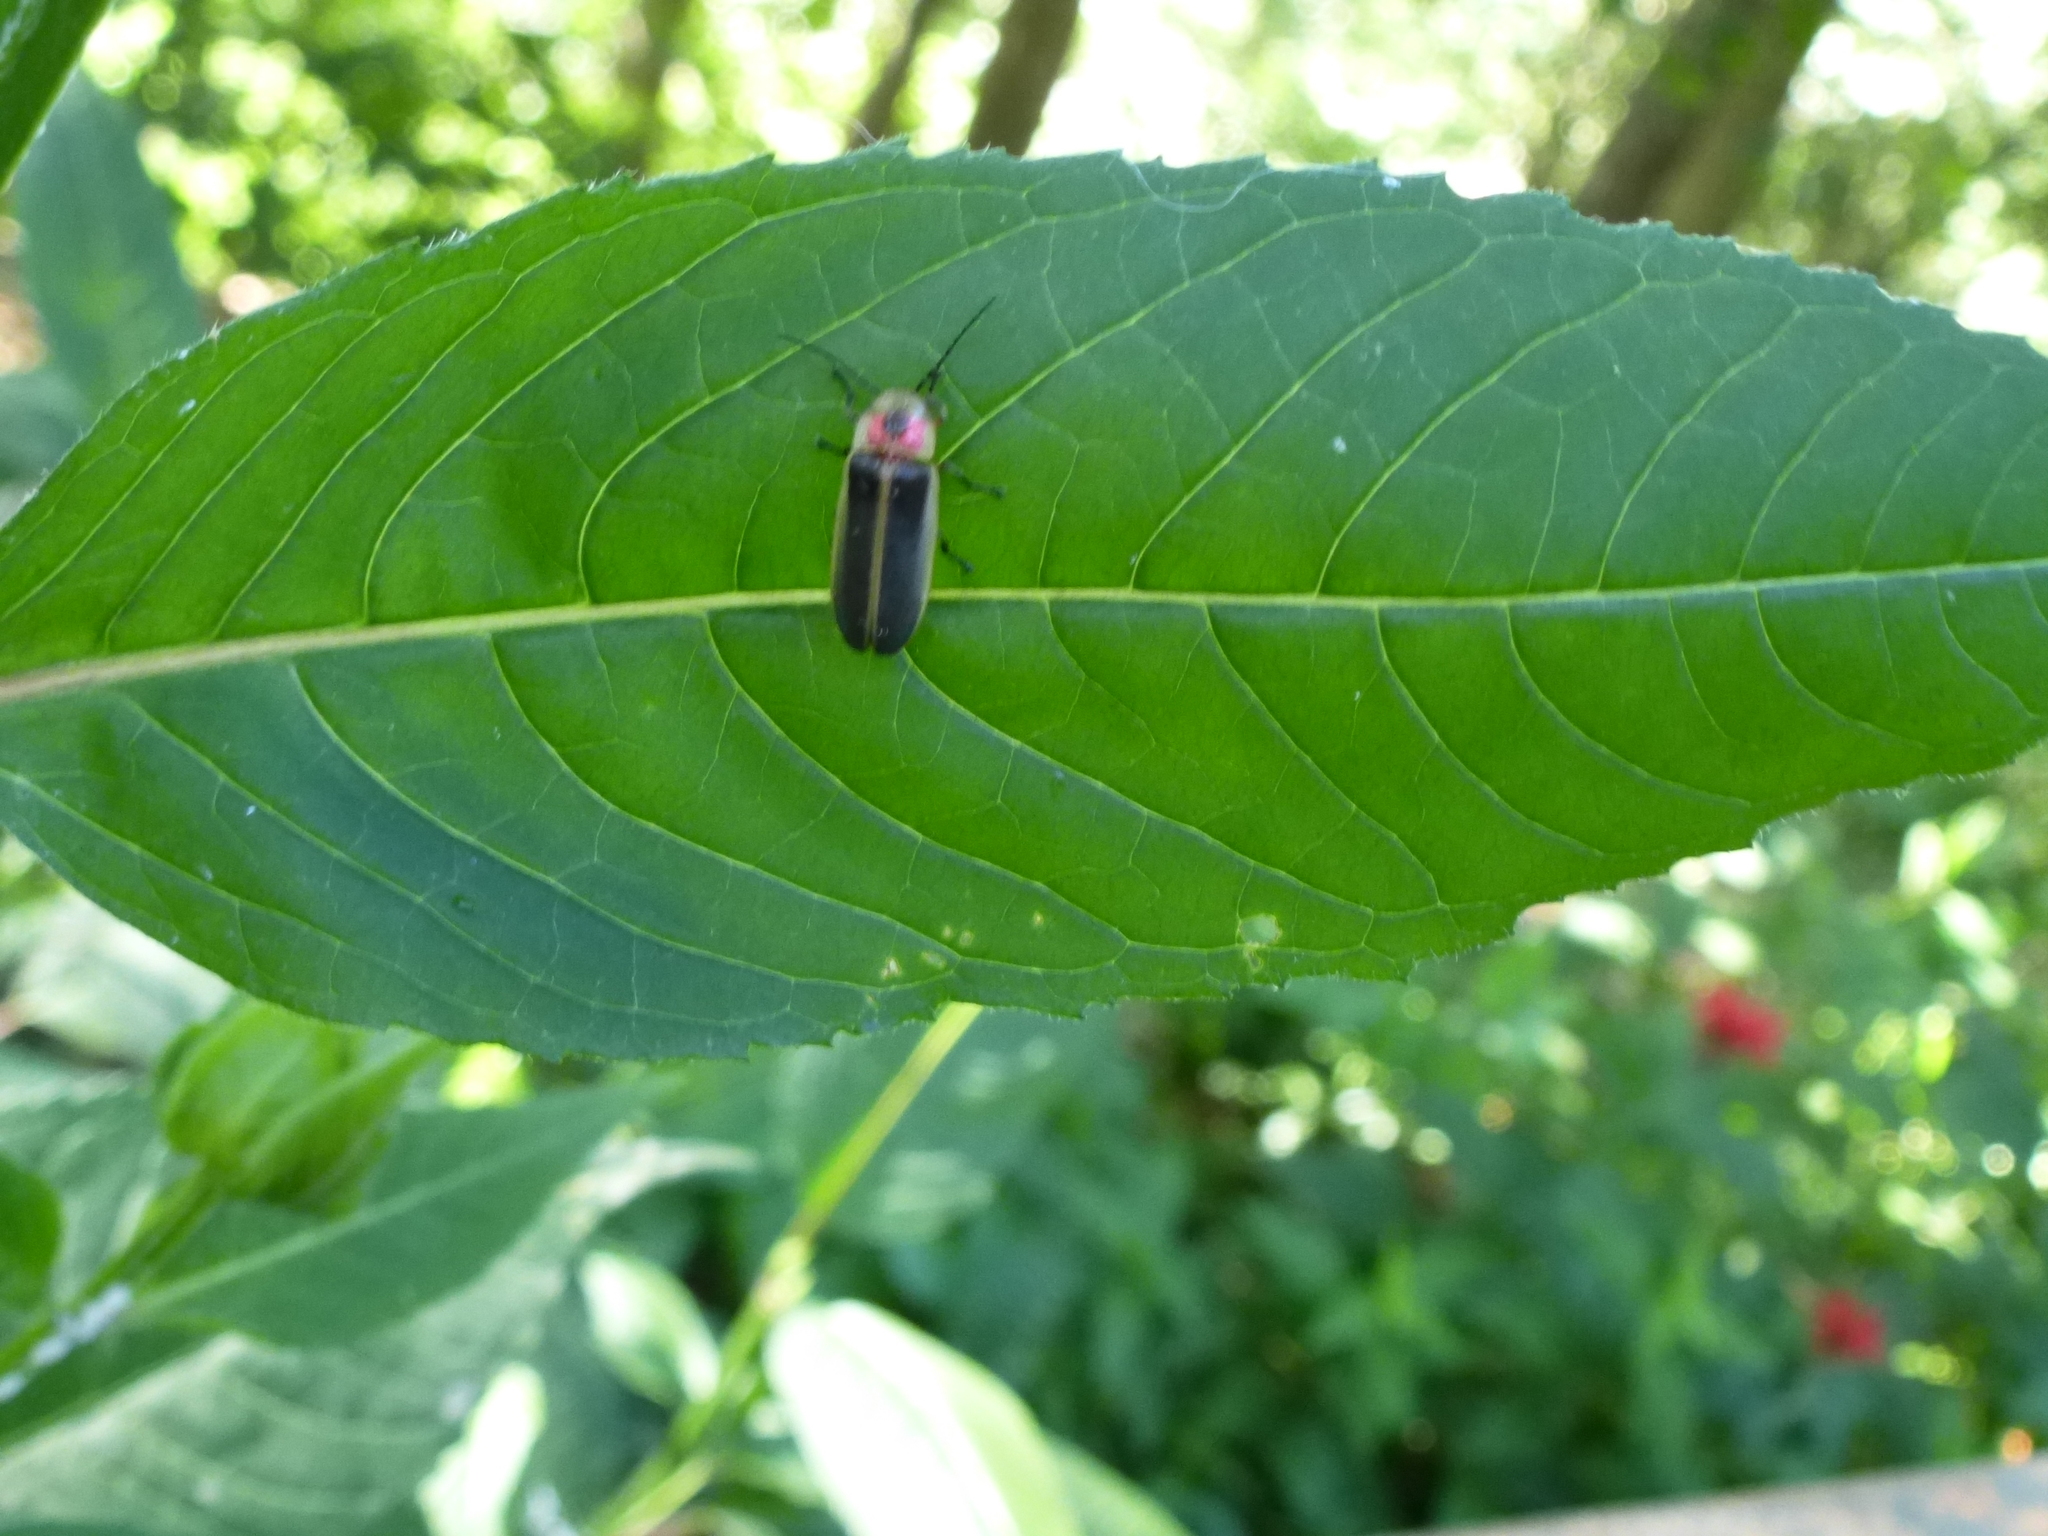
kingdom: Animalia
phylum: Arthropoda
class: Insecta
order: Coleoptera
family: Lampyridae
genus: Photinus
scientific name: Photinus pyralis
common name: Big dipper firefly
